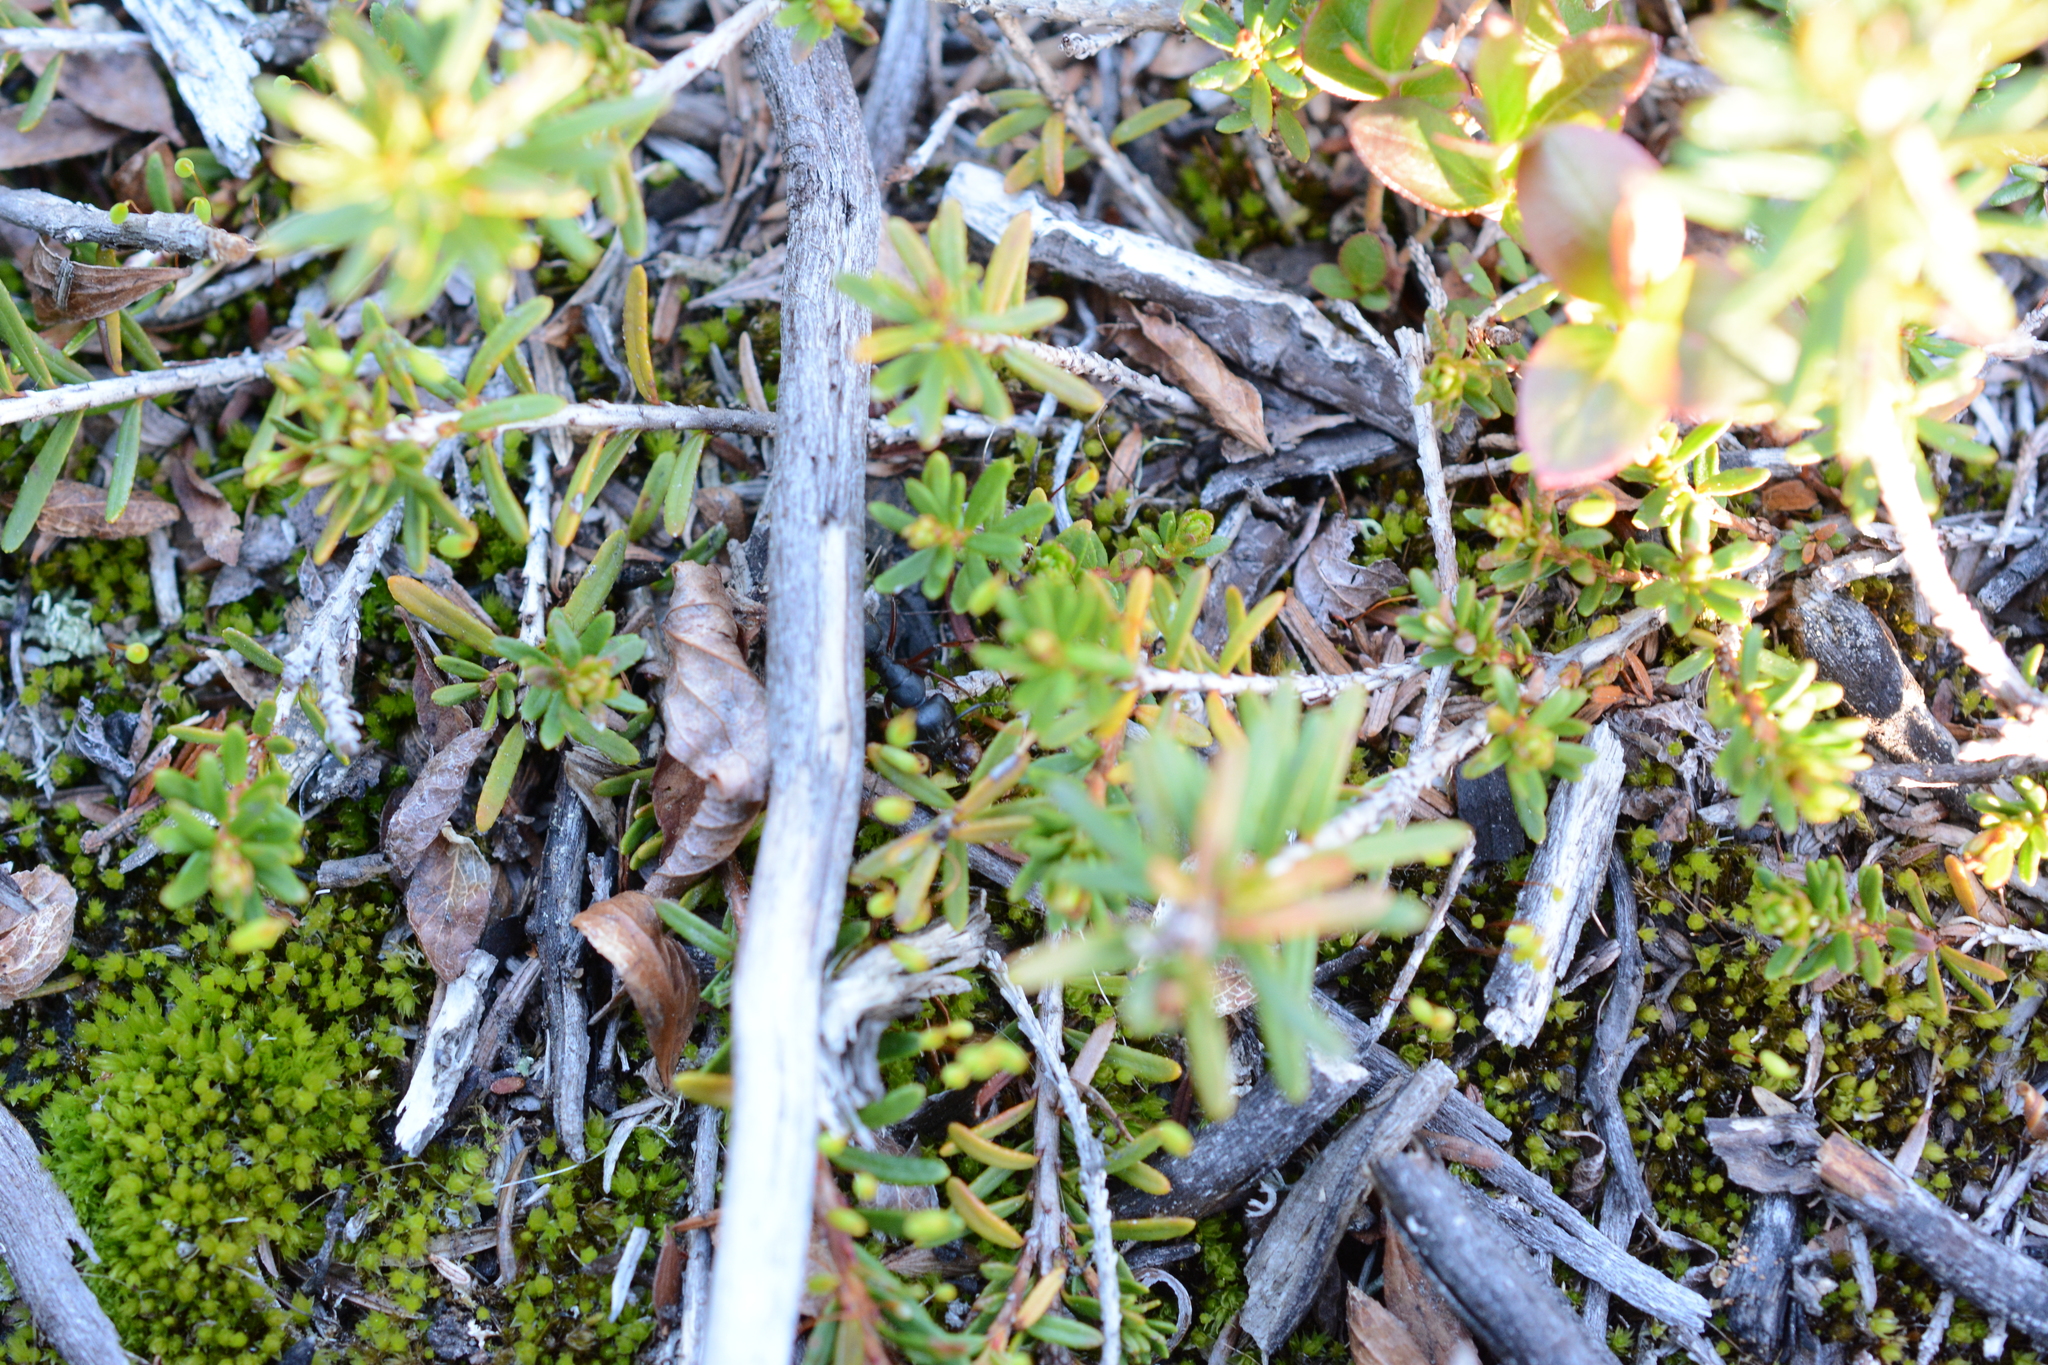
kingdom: Animalia
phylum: Arthropoda
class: Insecta
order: Hymenoptera
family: Formicidae
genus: Camponotus
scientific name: Camponotus modoc
